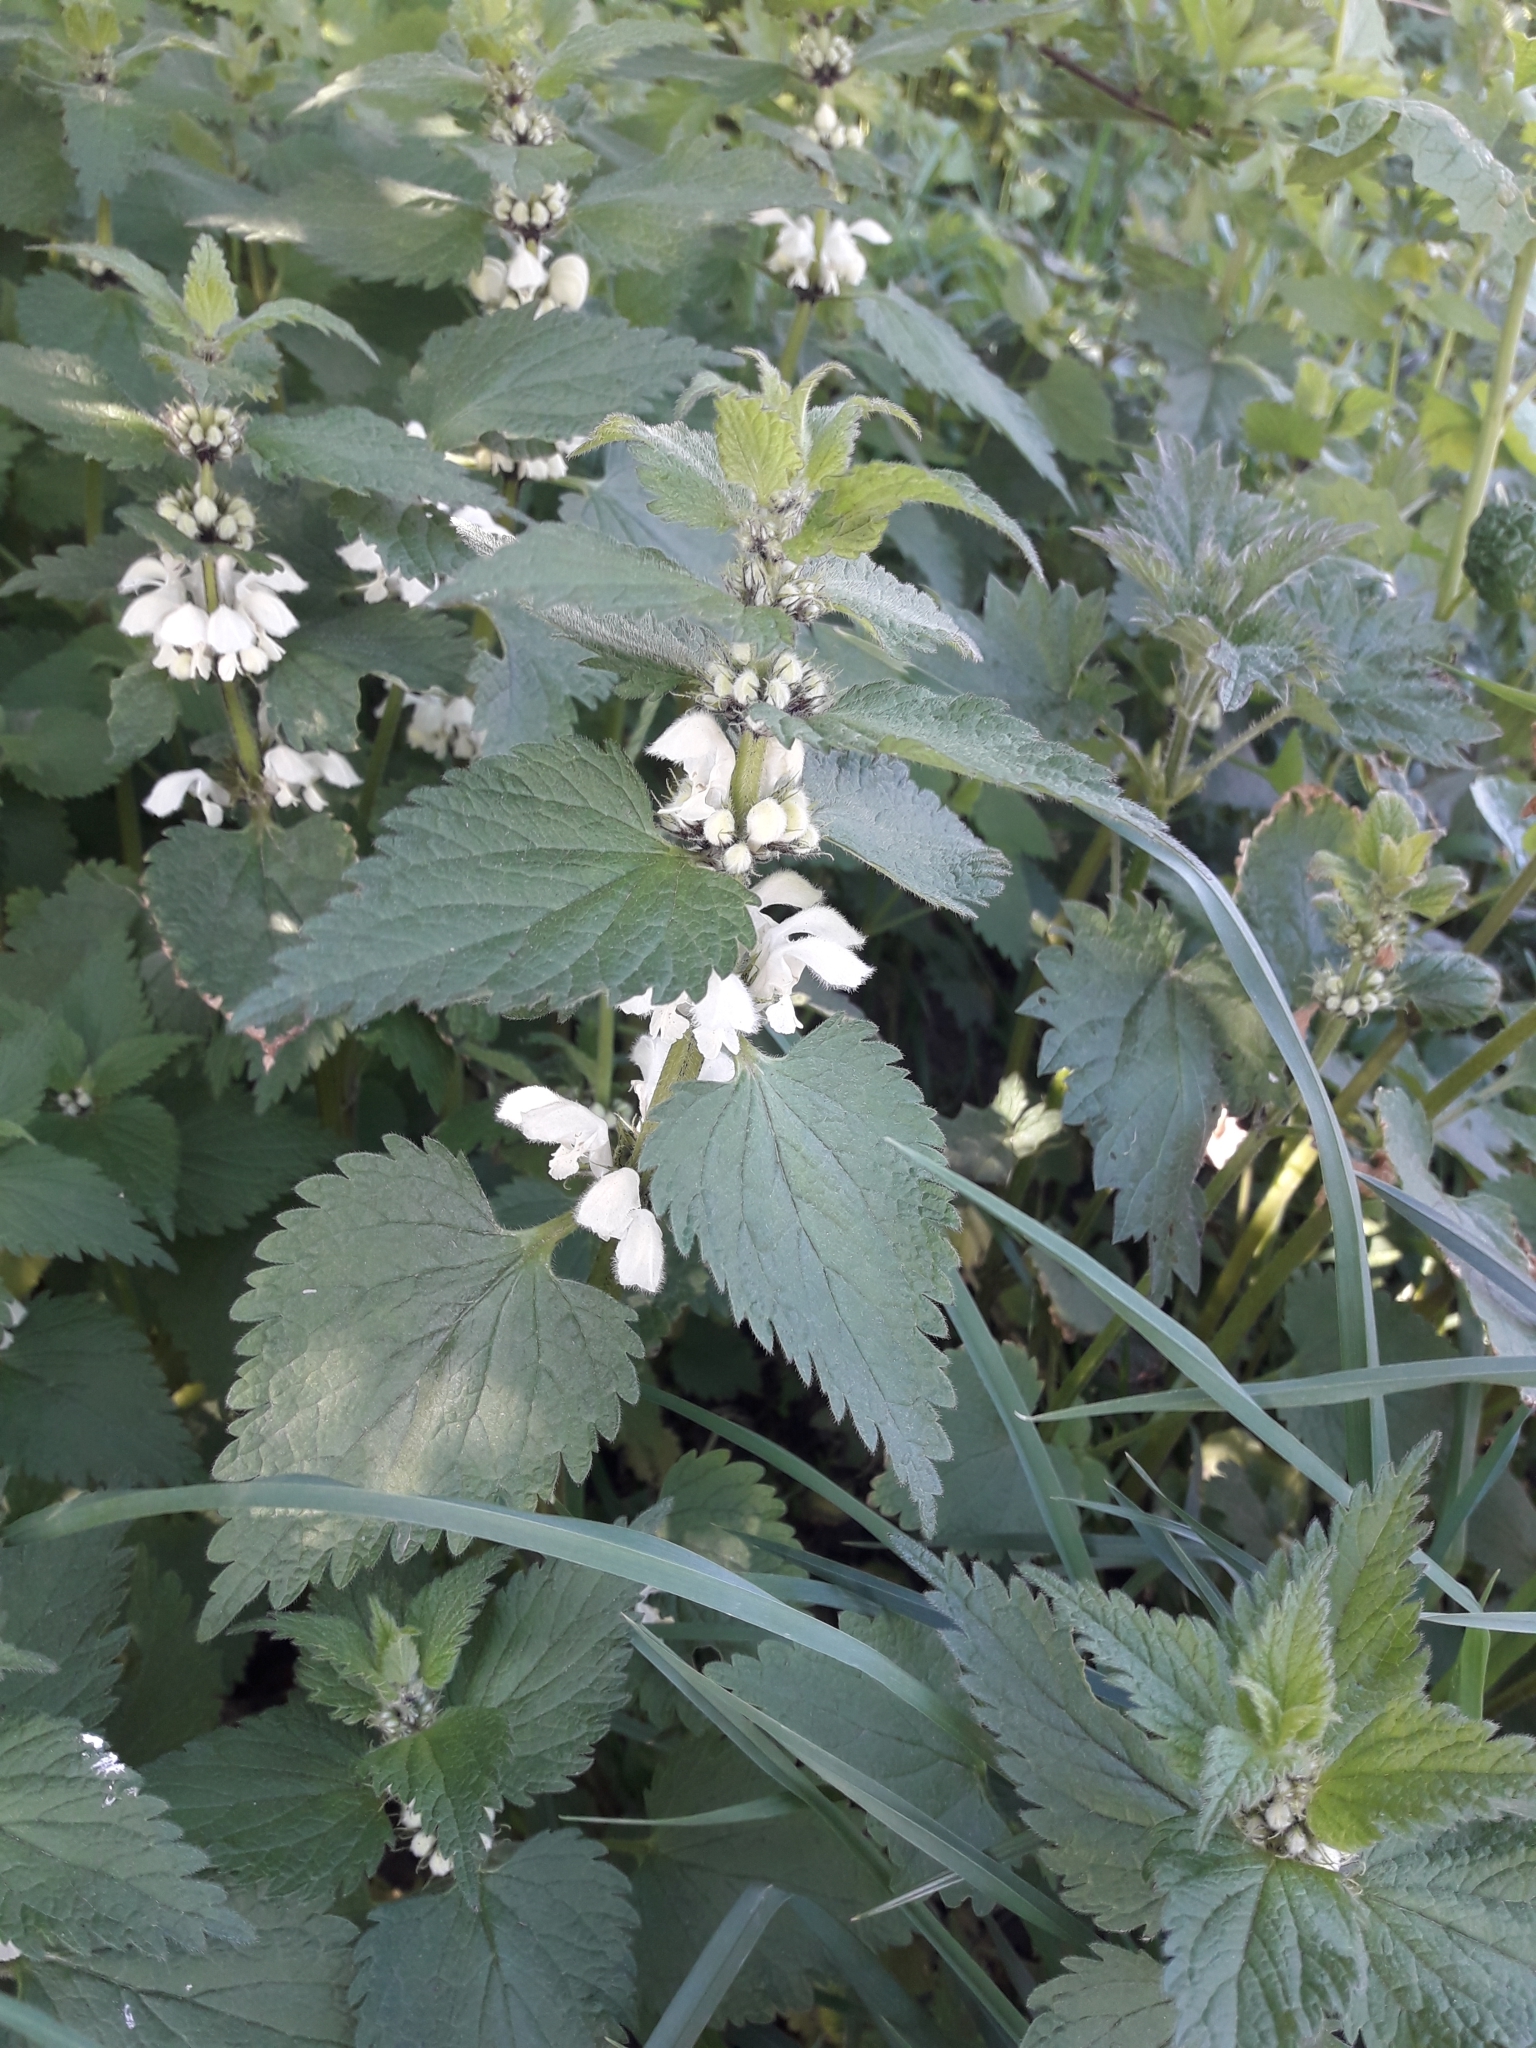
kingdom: Plantae
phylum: Tracheophyta
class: Magnoliopsida
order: Lamiales
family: Lamiaceae
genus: Lamium
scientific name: Lamium album
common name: White dead-nettle
